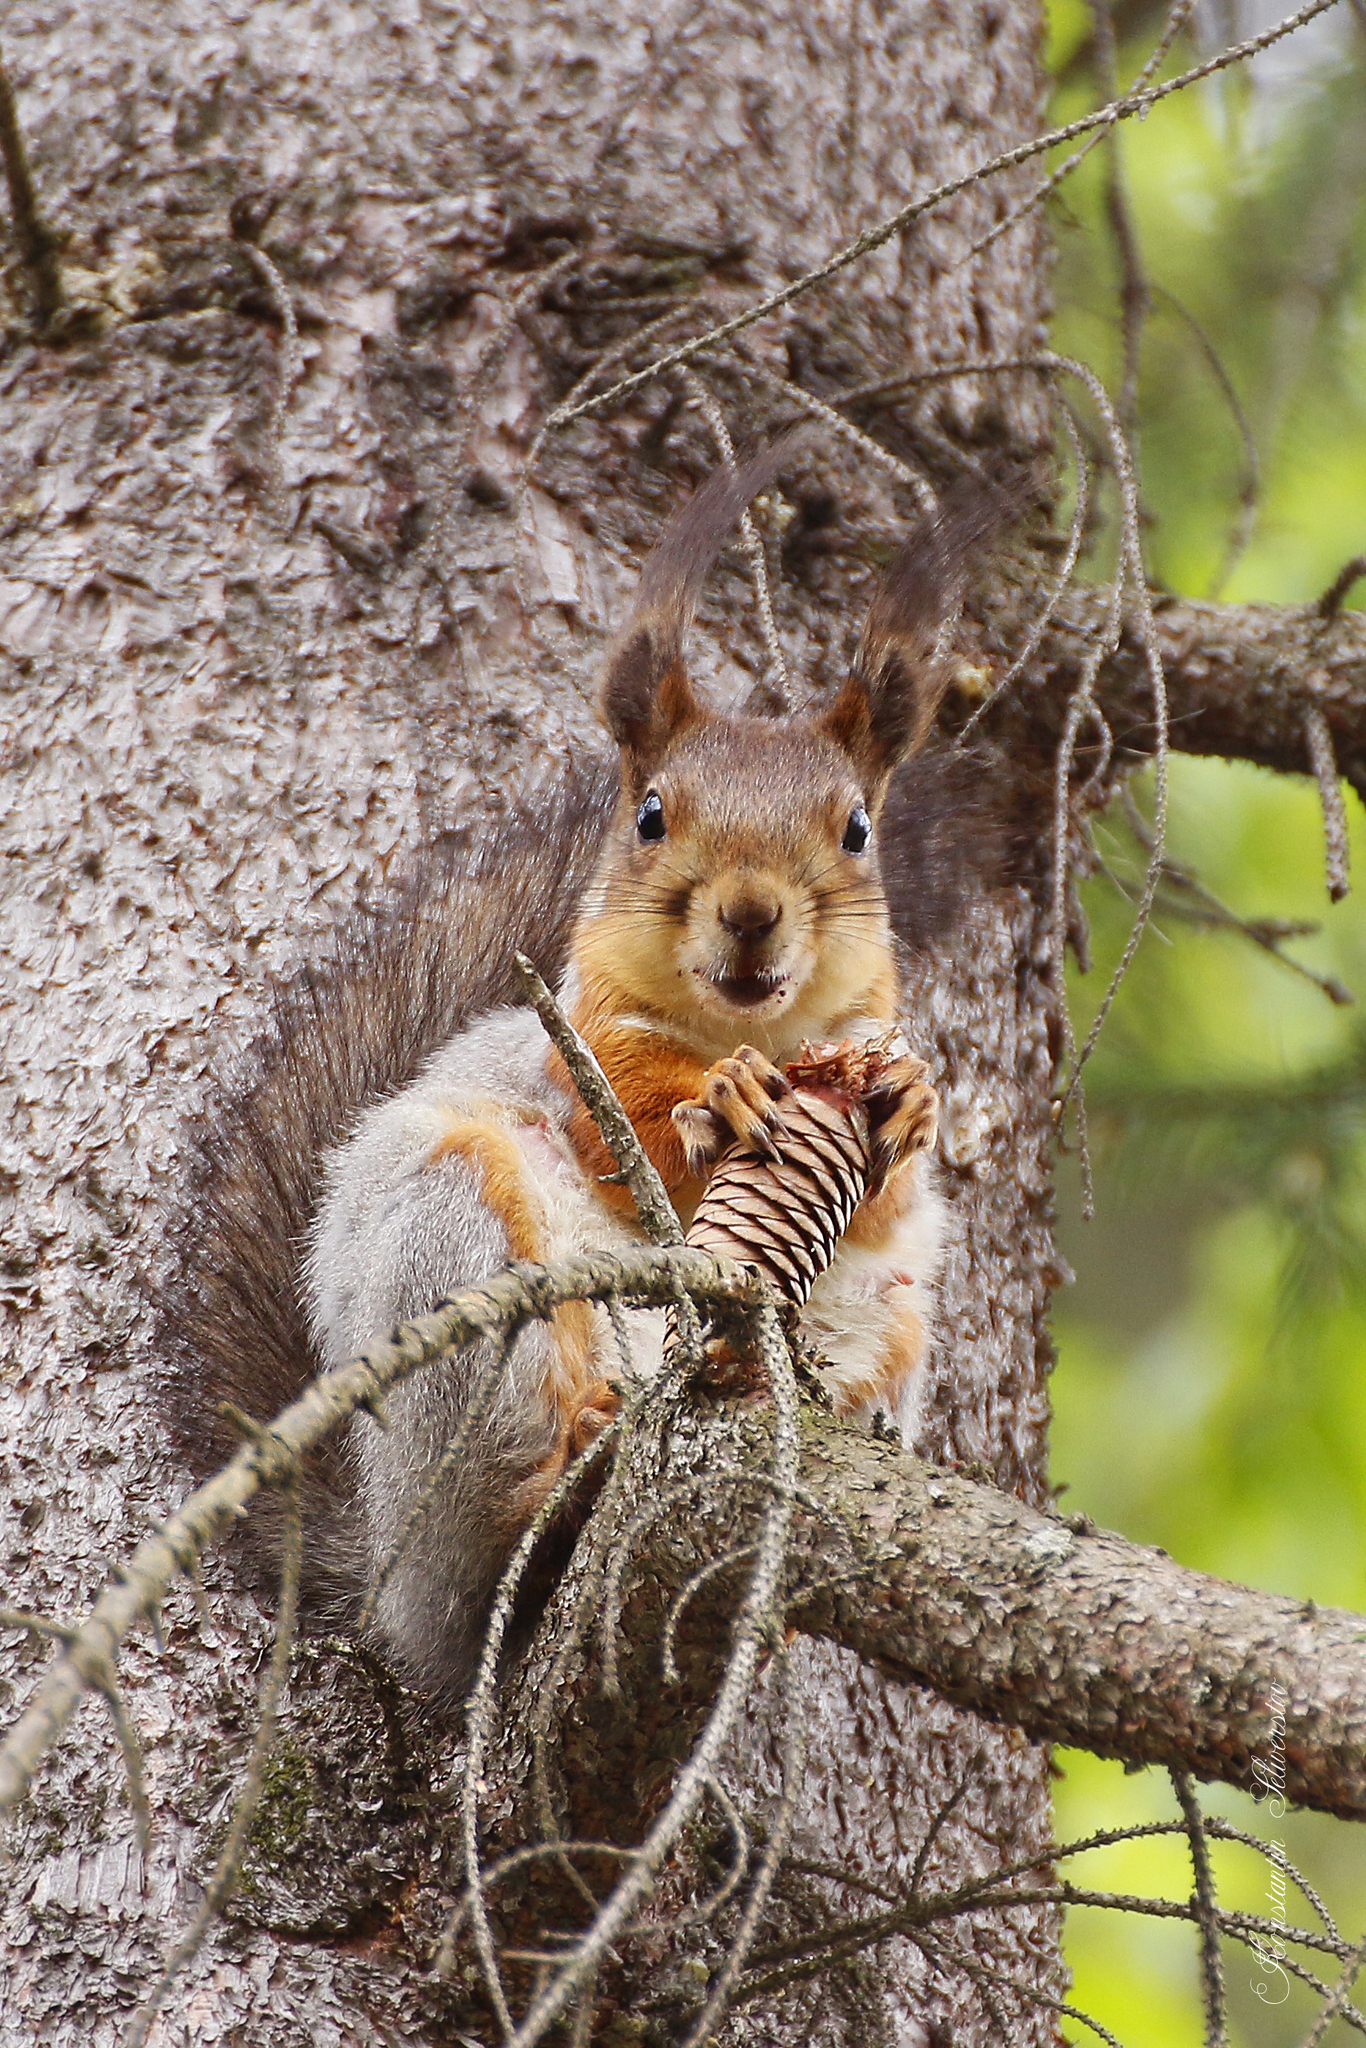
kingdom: Animalia
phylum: Chordata
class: Mammalia
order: Rodentia
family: Sciuridae
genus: Sciurus
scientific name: Sciurus vulgaris
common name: Eurasian red squirrel
